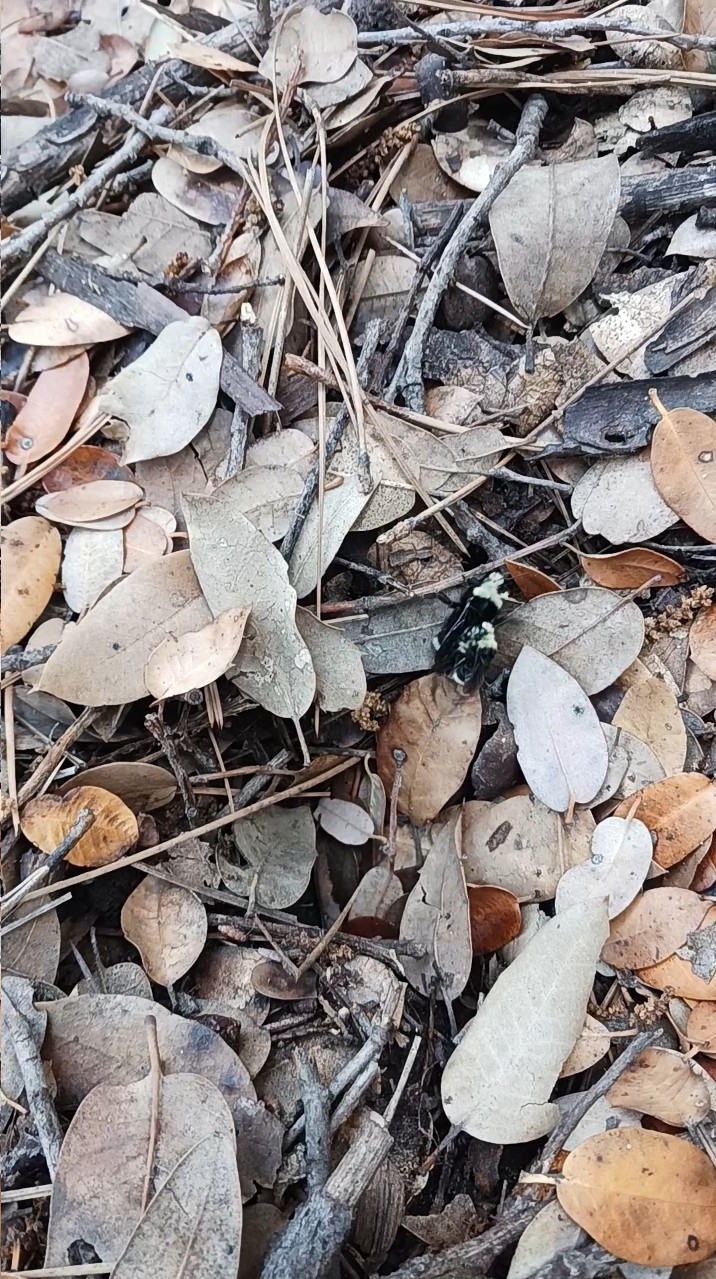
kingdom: Animalia
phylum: Arthropoda
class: Insecta
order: Hymenoptera
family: Apidae
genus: Bombus
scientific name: Bombus vosnesenskii
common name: Vosnesensky bumble bee
